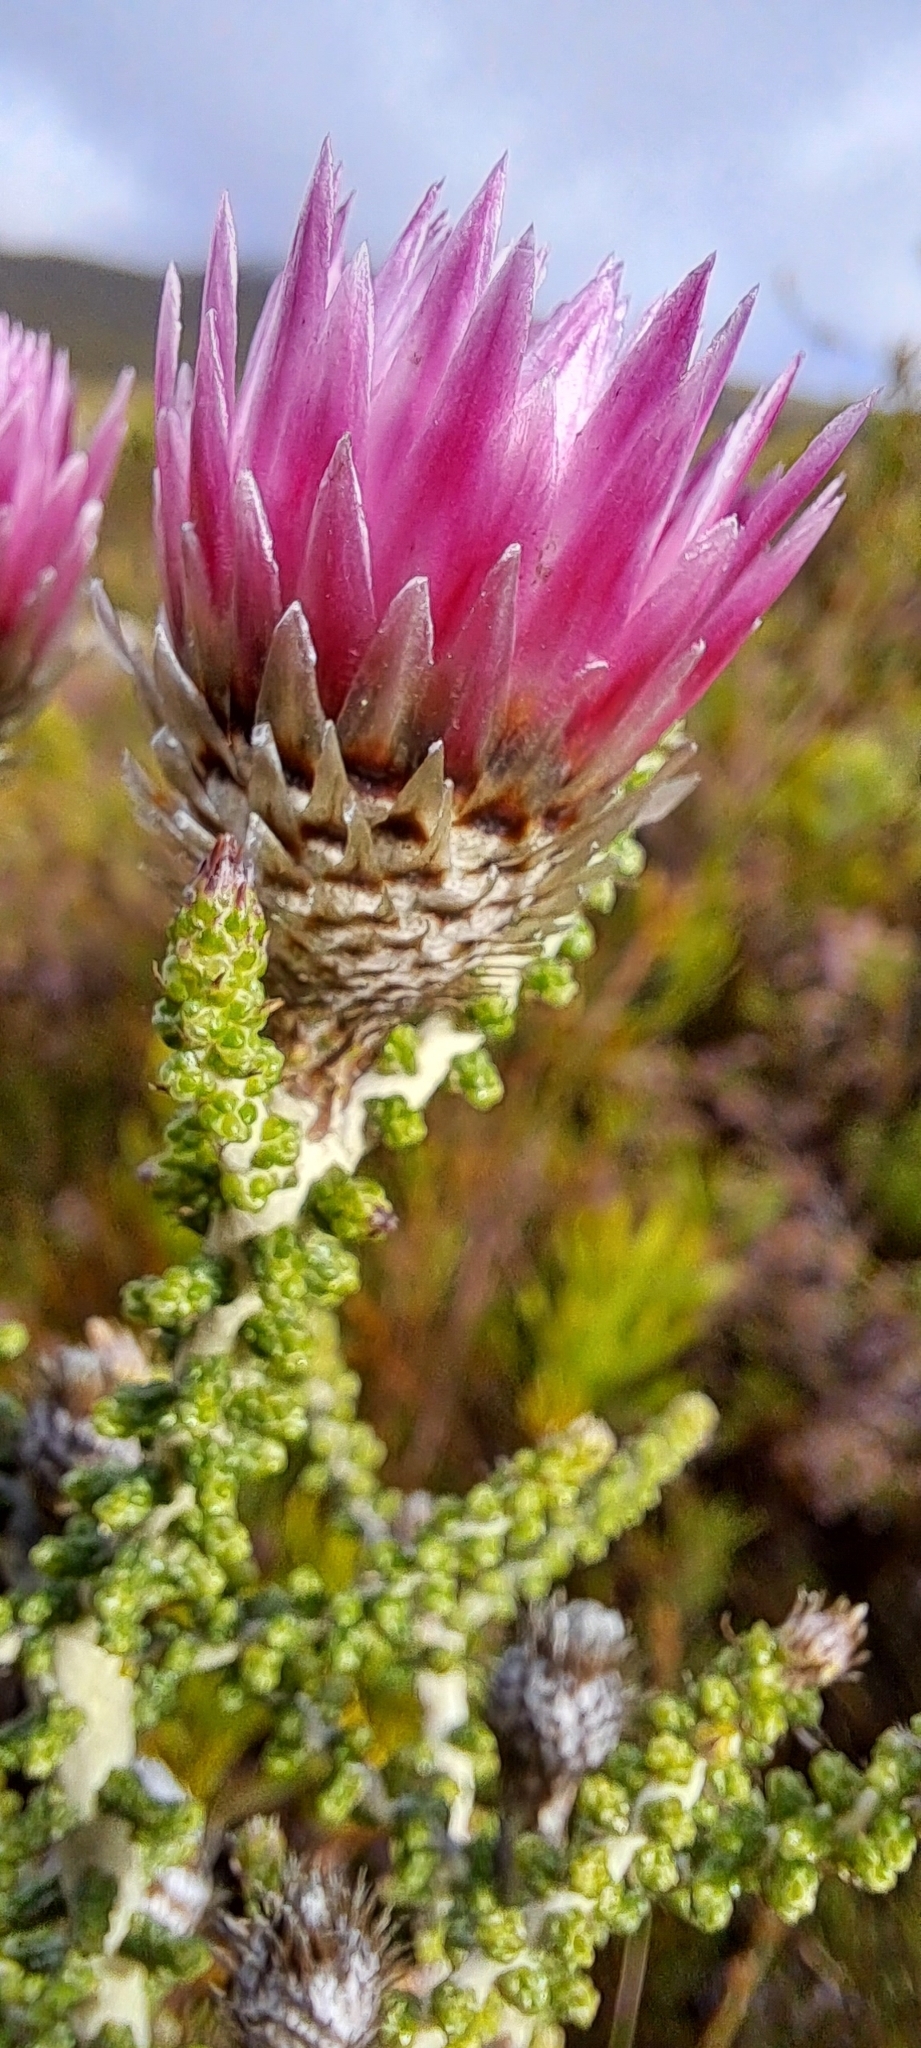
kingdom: Plantae
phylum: Tracheophyta
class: Magnoliopsida
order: Asterales
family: Asteraceae
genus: Phaenocoma
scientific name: Phaenocoma prolifera
